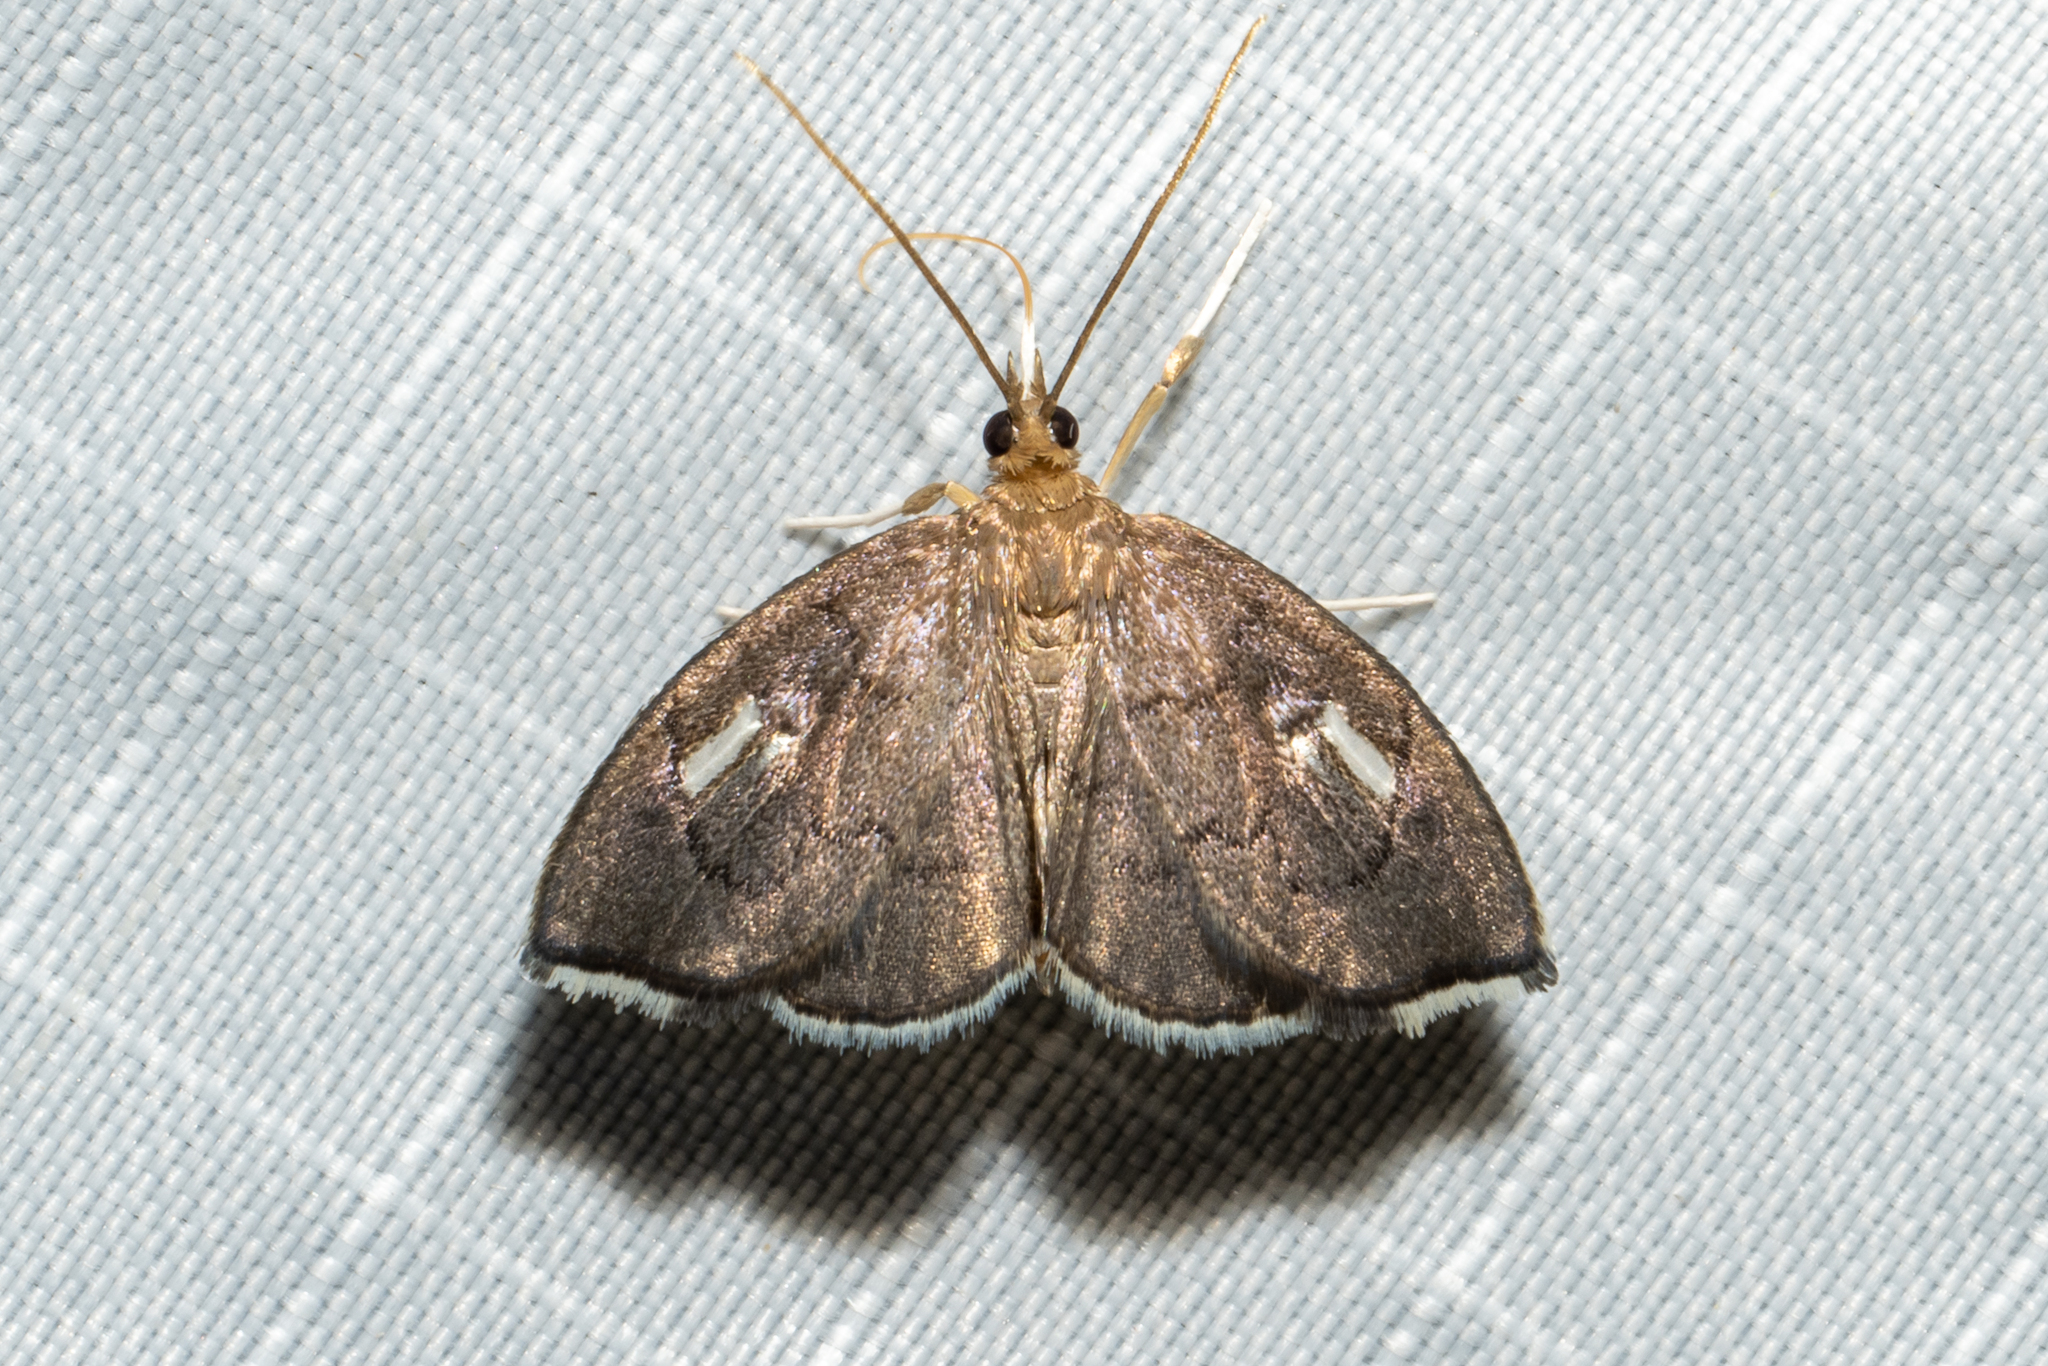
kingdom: Animalia
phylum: Arthropoda
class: Insecta
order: Lepidoptera
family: Crambidae
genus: Perispasta
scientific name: Perispasta caeculalis
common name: Titian peale's moth
